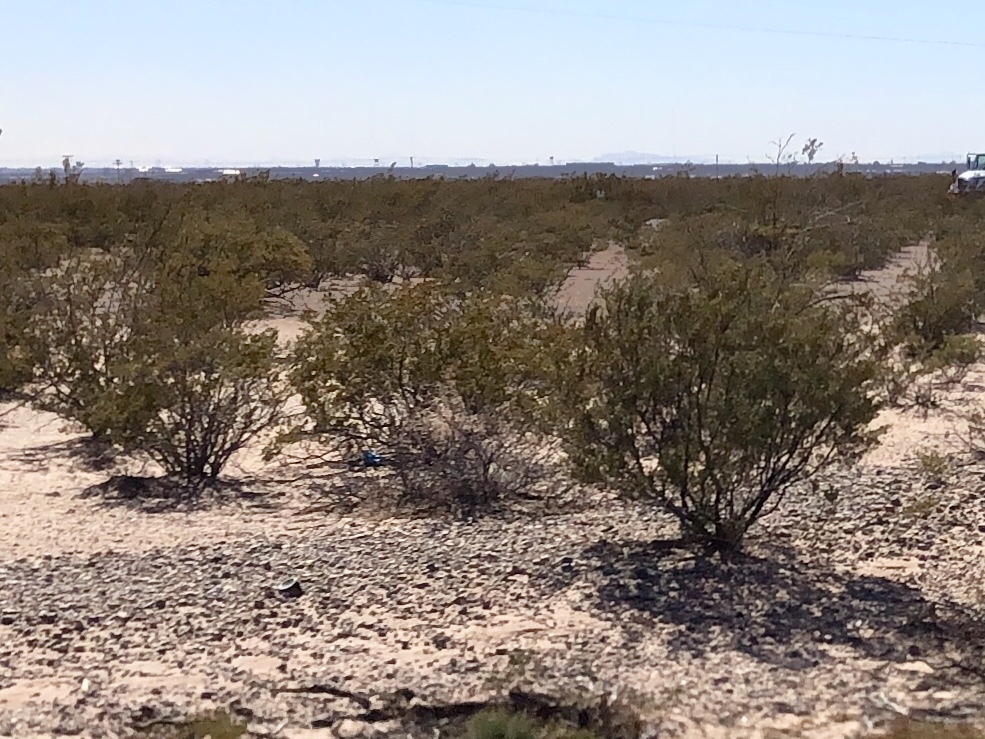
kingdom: Plantae
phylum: Tracheophyta
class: Magnoliopsida
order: Zygophyllales
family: Zygophyllaceae
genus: Larrea
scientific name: Larrea tridentata
